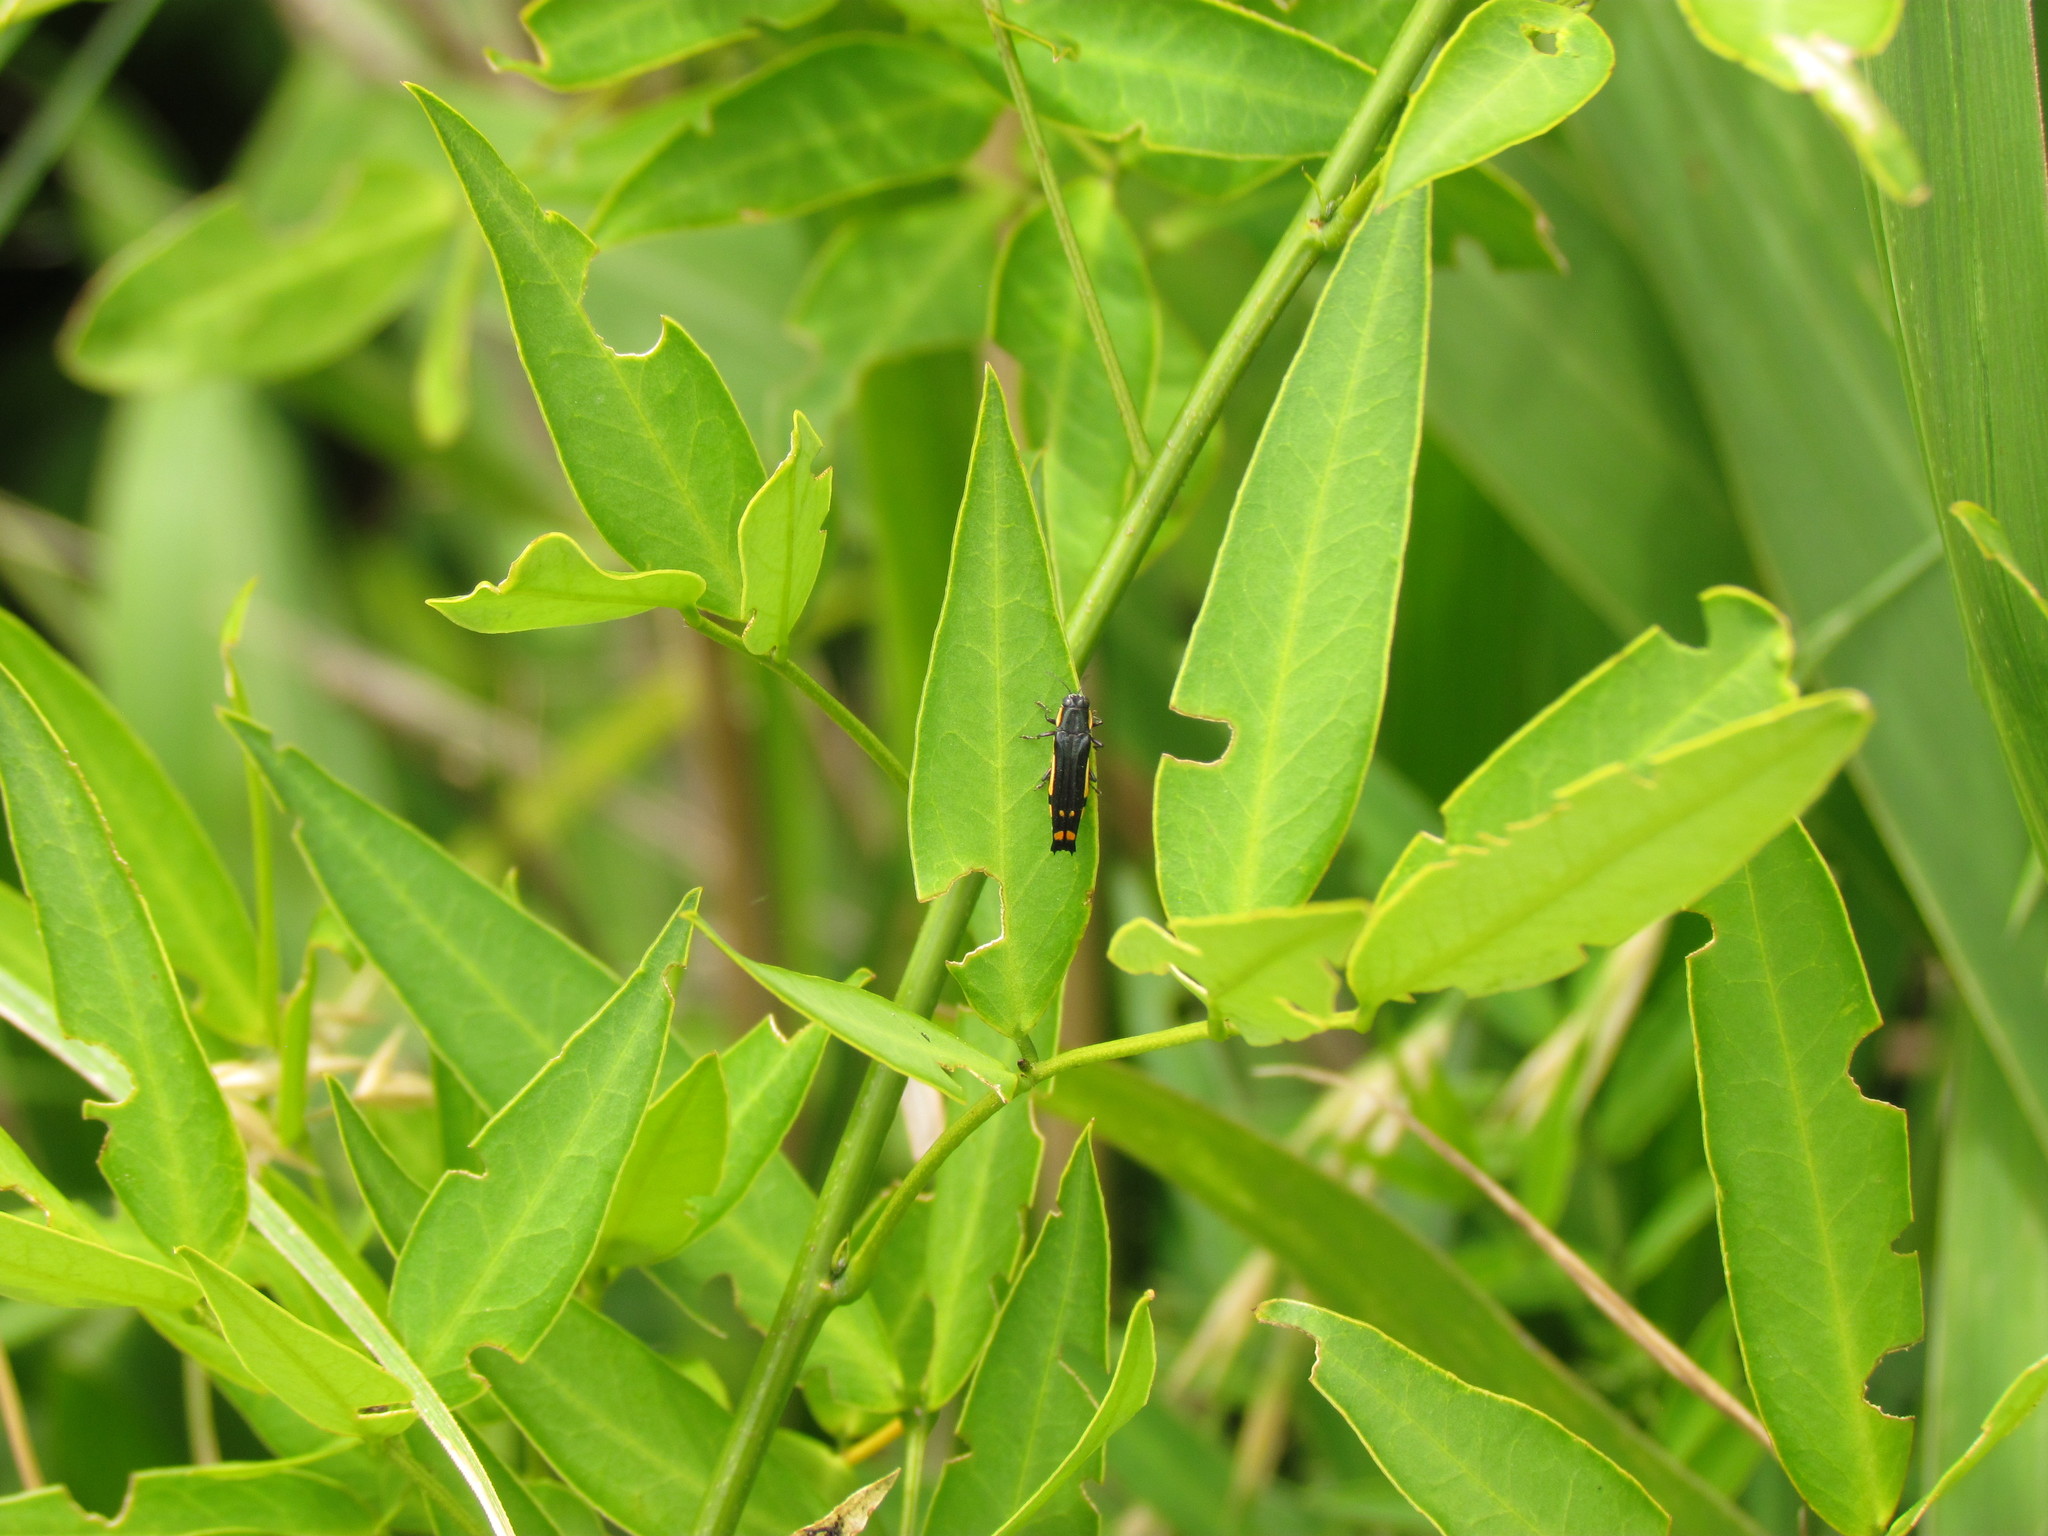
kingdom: Animalia
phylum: Arthropoda
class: Insecta
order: Coleoptera
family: Buprestidae
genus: Agrilus
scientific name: Agrilus chrysostictus
